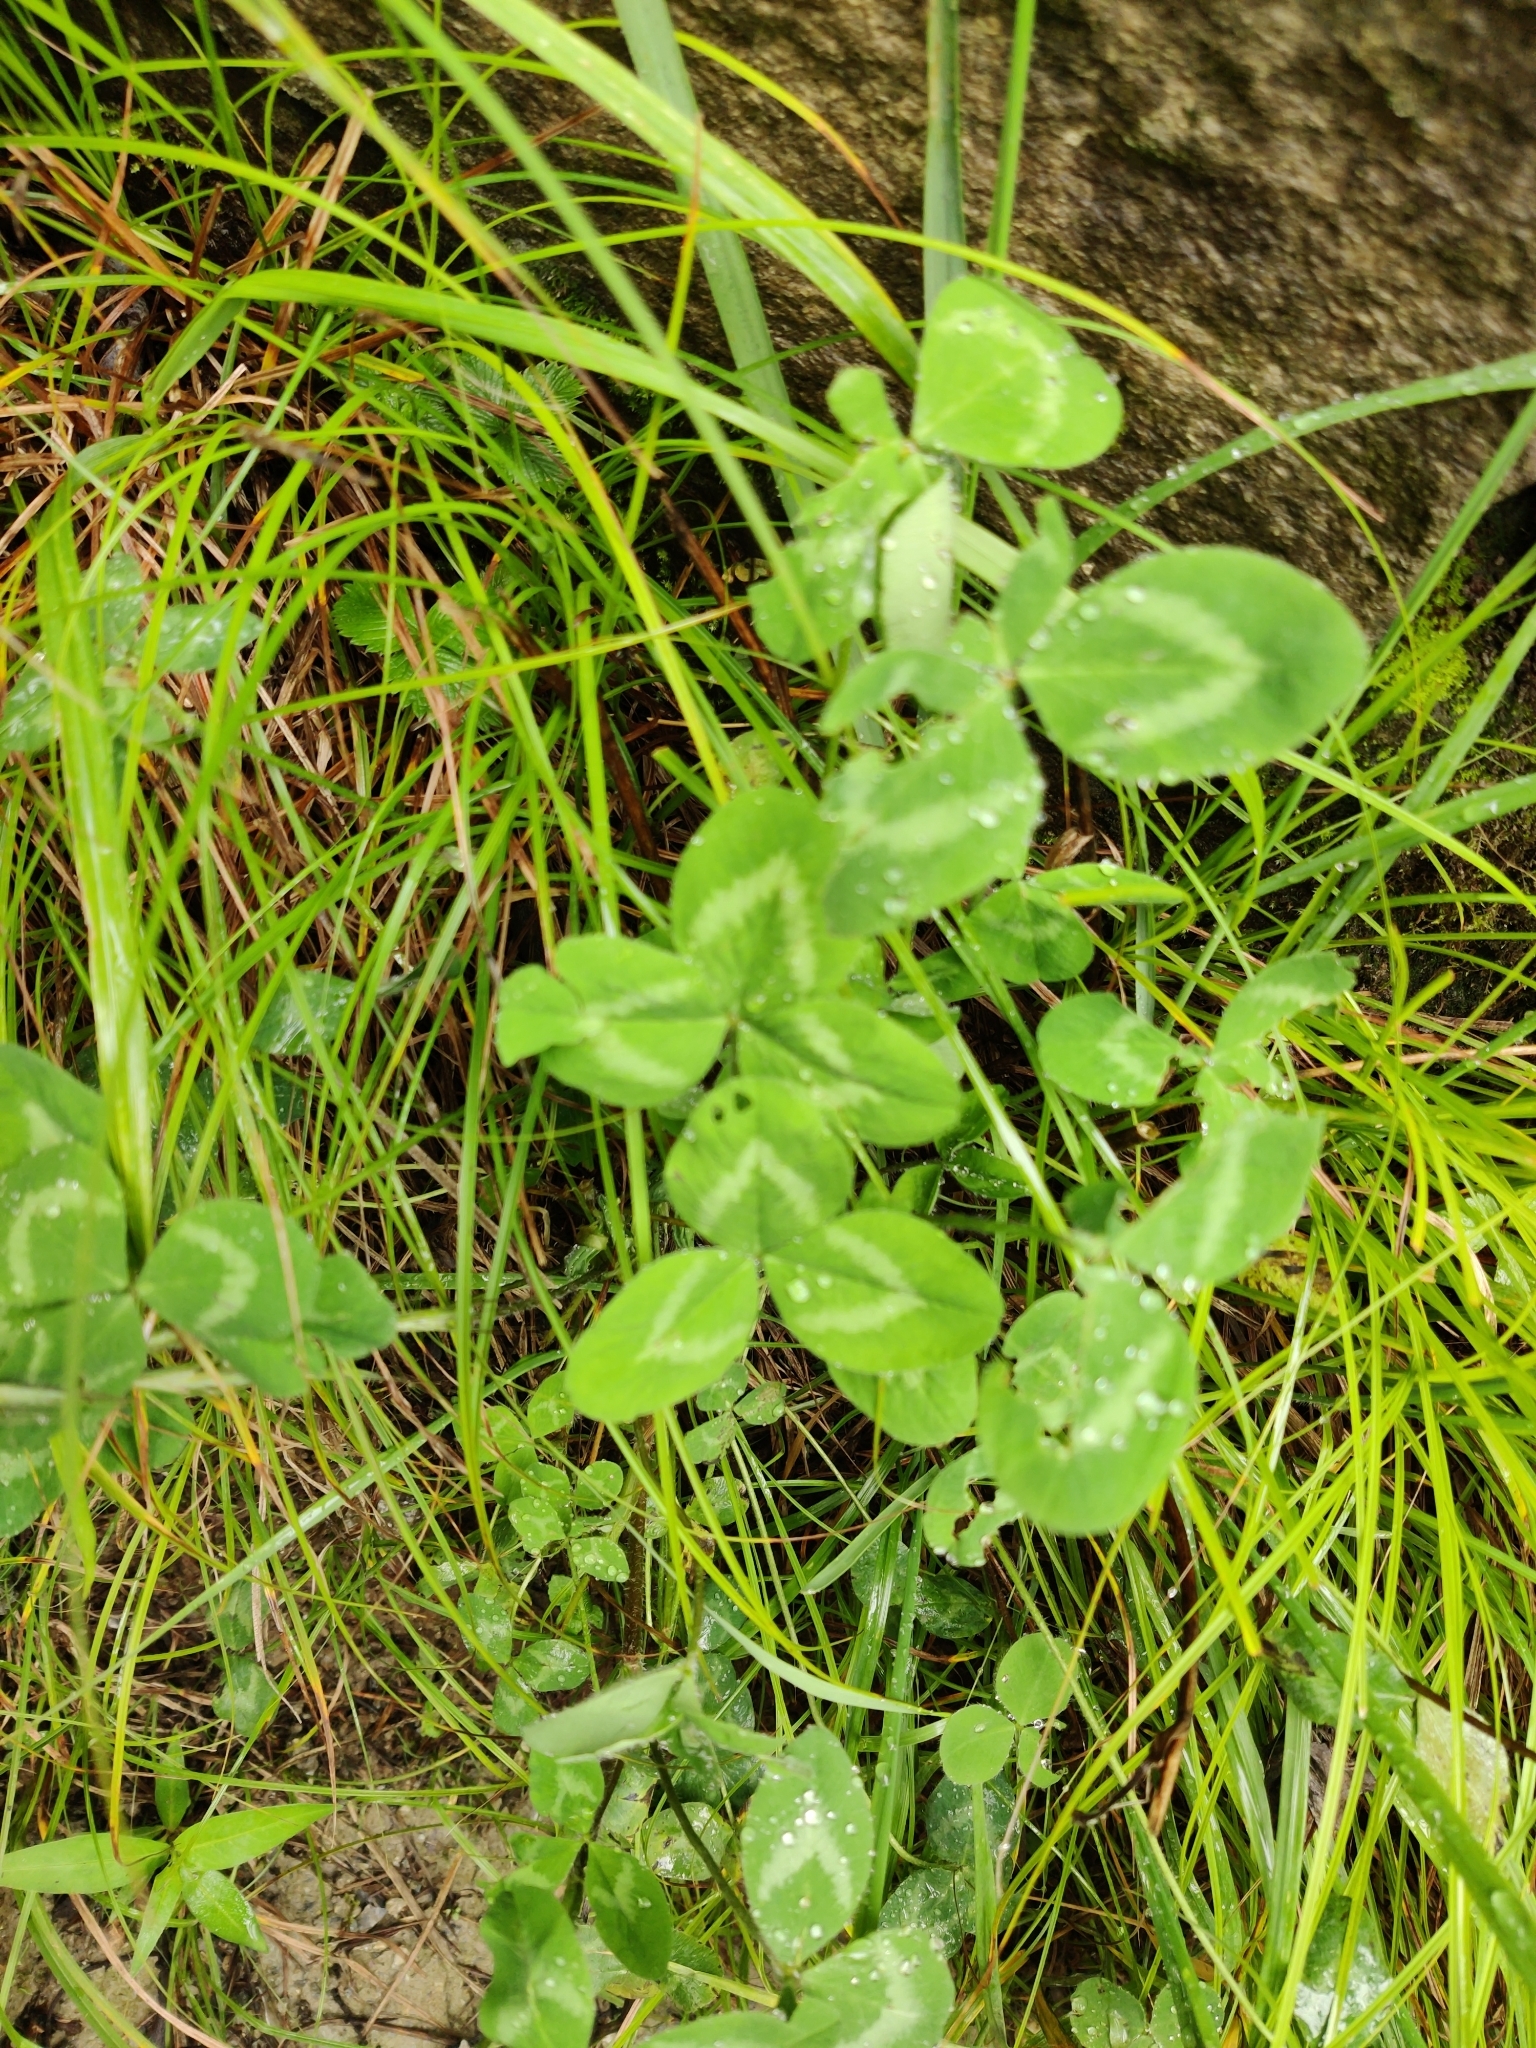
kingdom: Plantae
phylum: Tracheophyta
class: Magnoliopsida
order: Fabales
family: Fabaceae
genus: Trifolium
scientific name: Trifolium pratense
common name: Red clover
